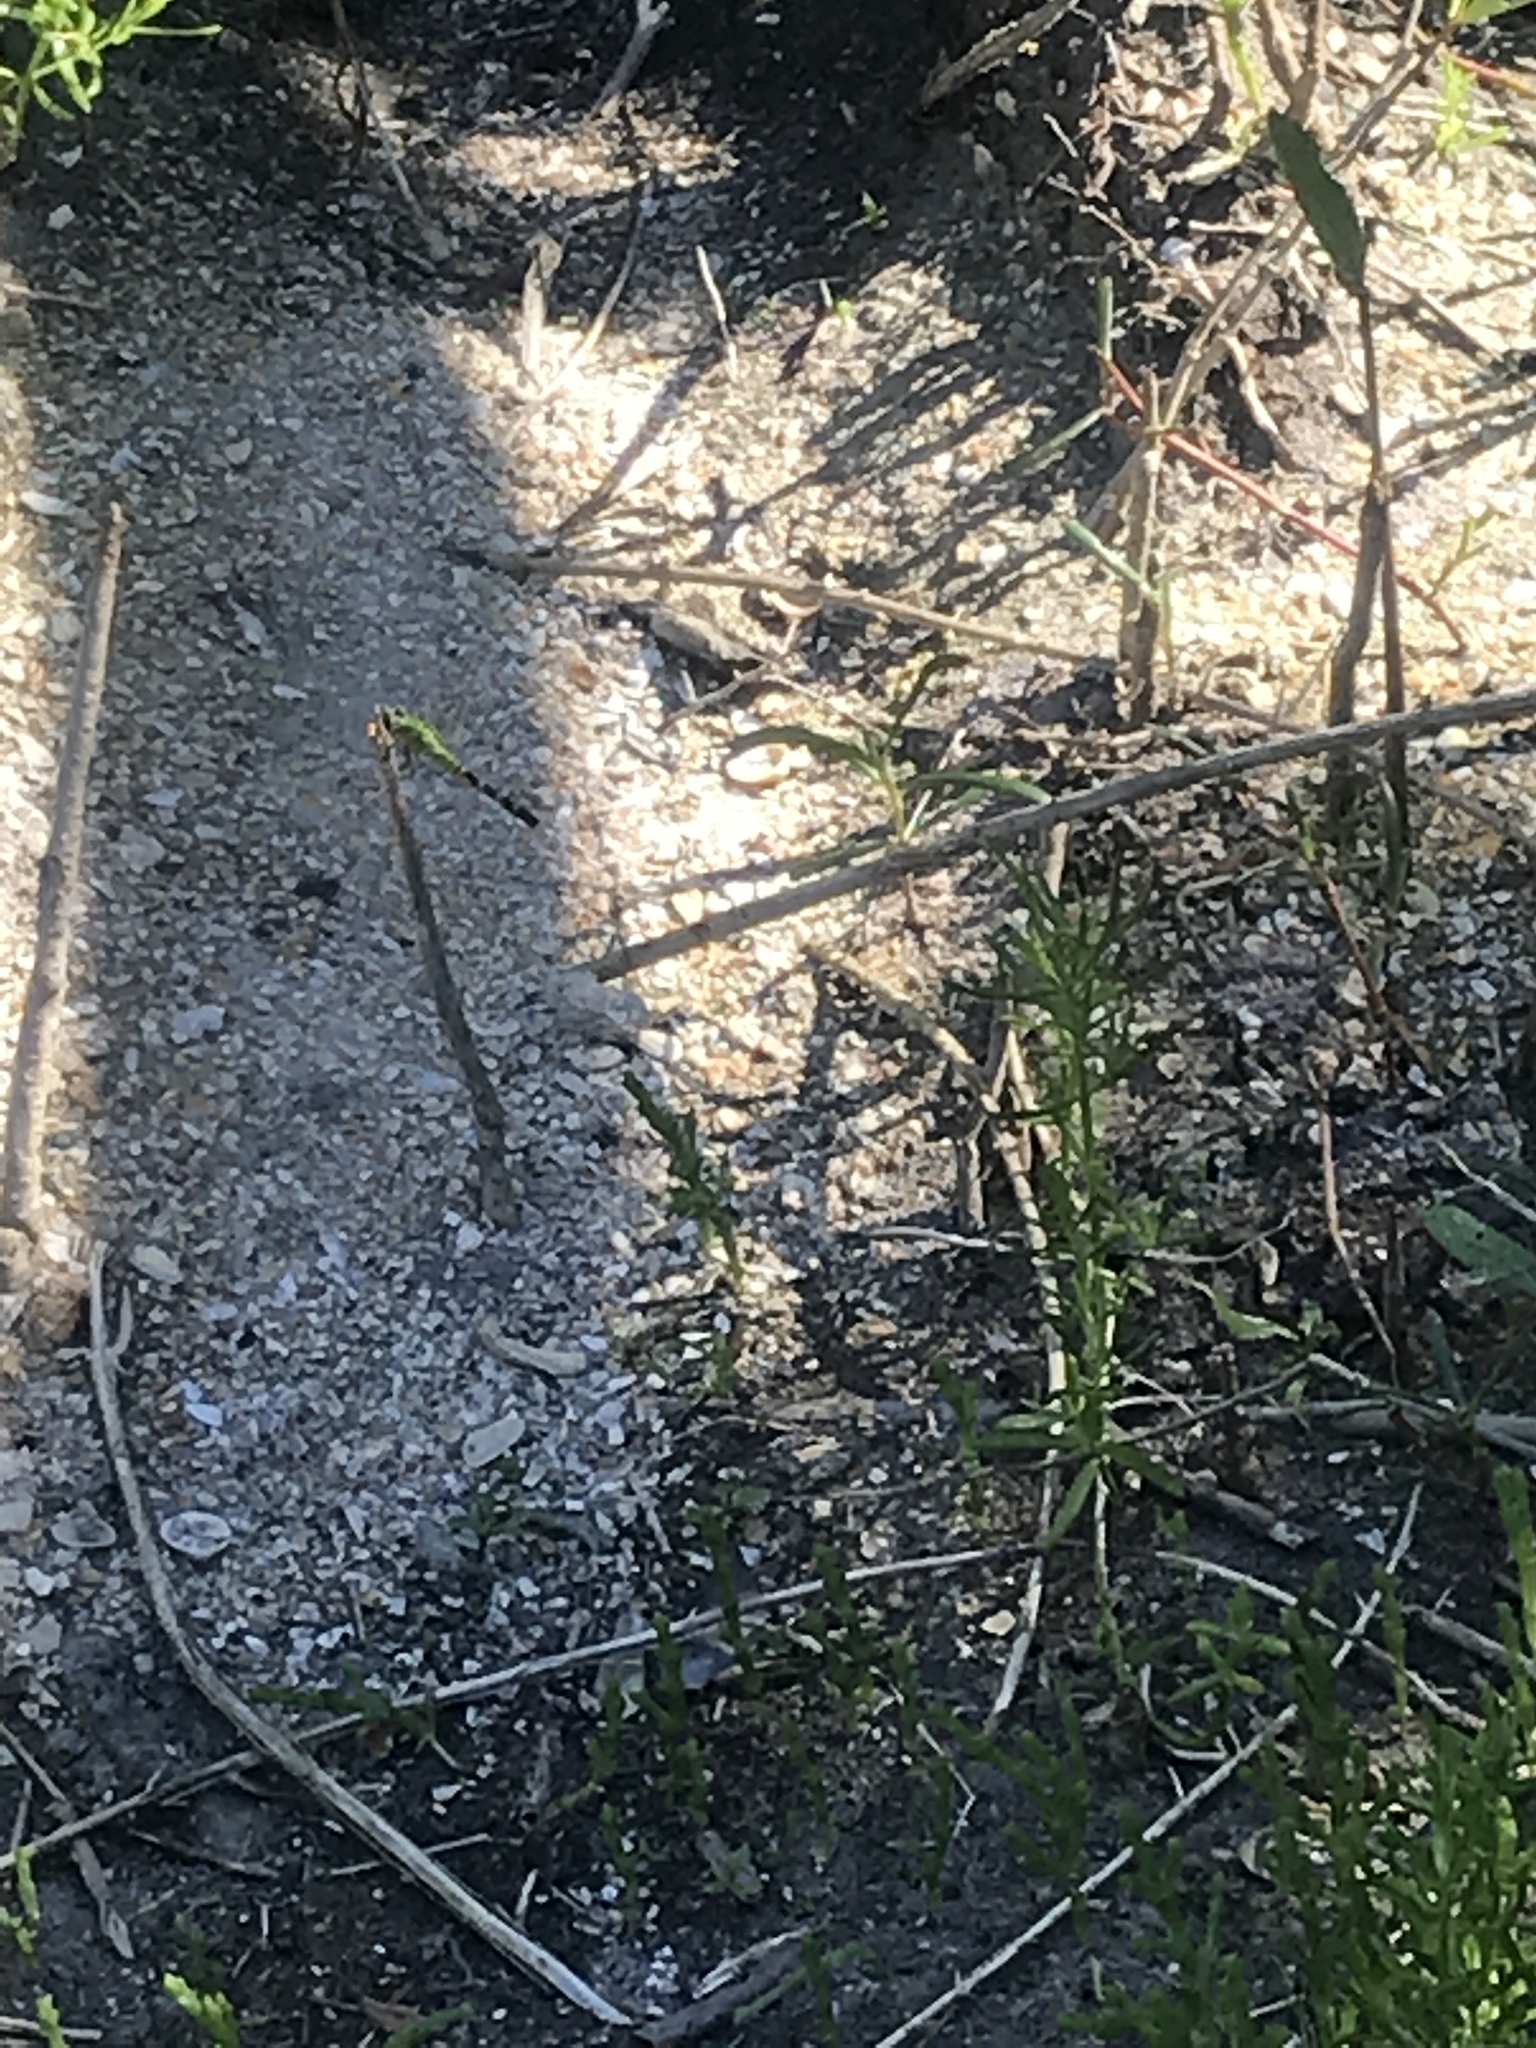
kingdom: Animalia
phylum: Arthropoda
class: Insecta
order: Odonata
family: Libellulidae
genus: Erythemis
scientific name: Erythemis simplicicollis
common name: Eastern pondhawk
